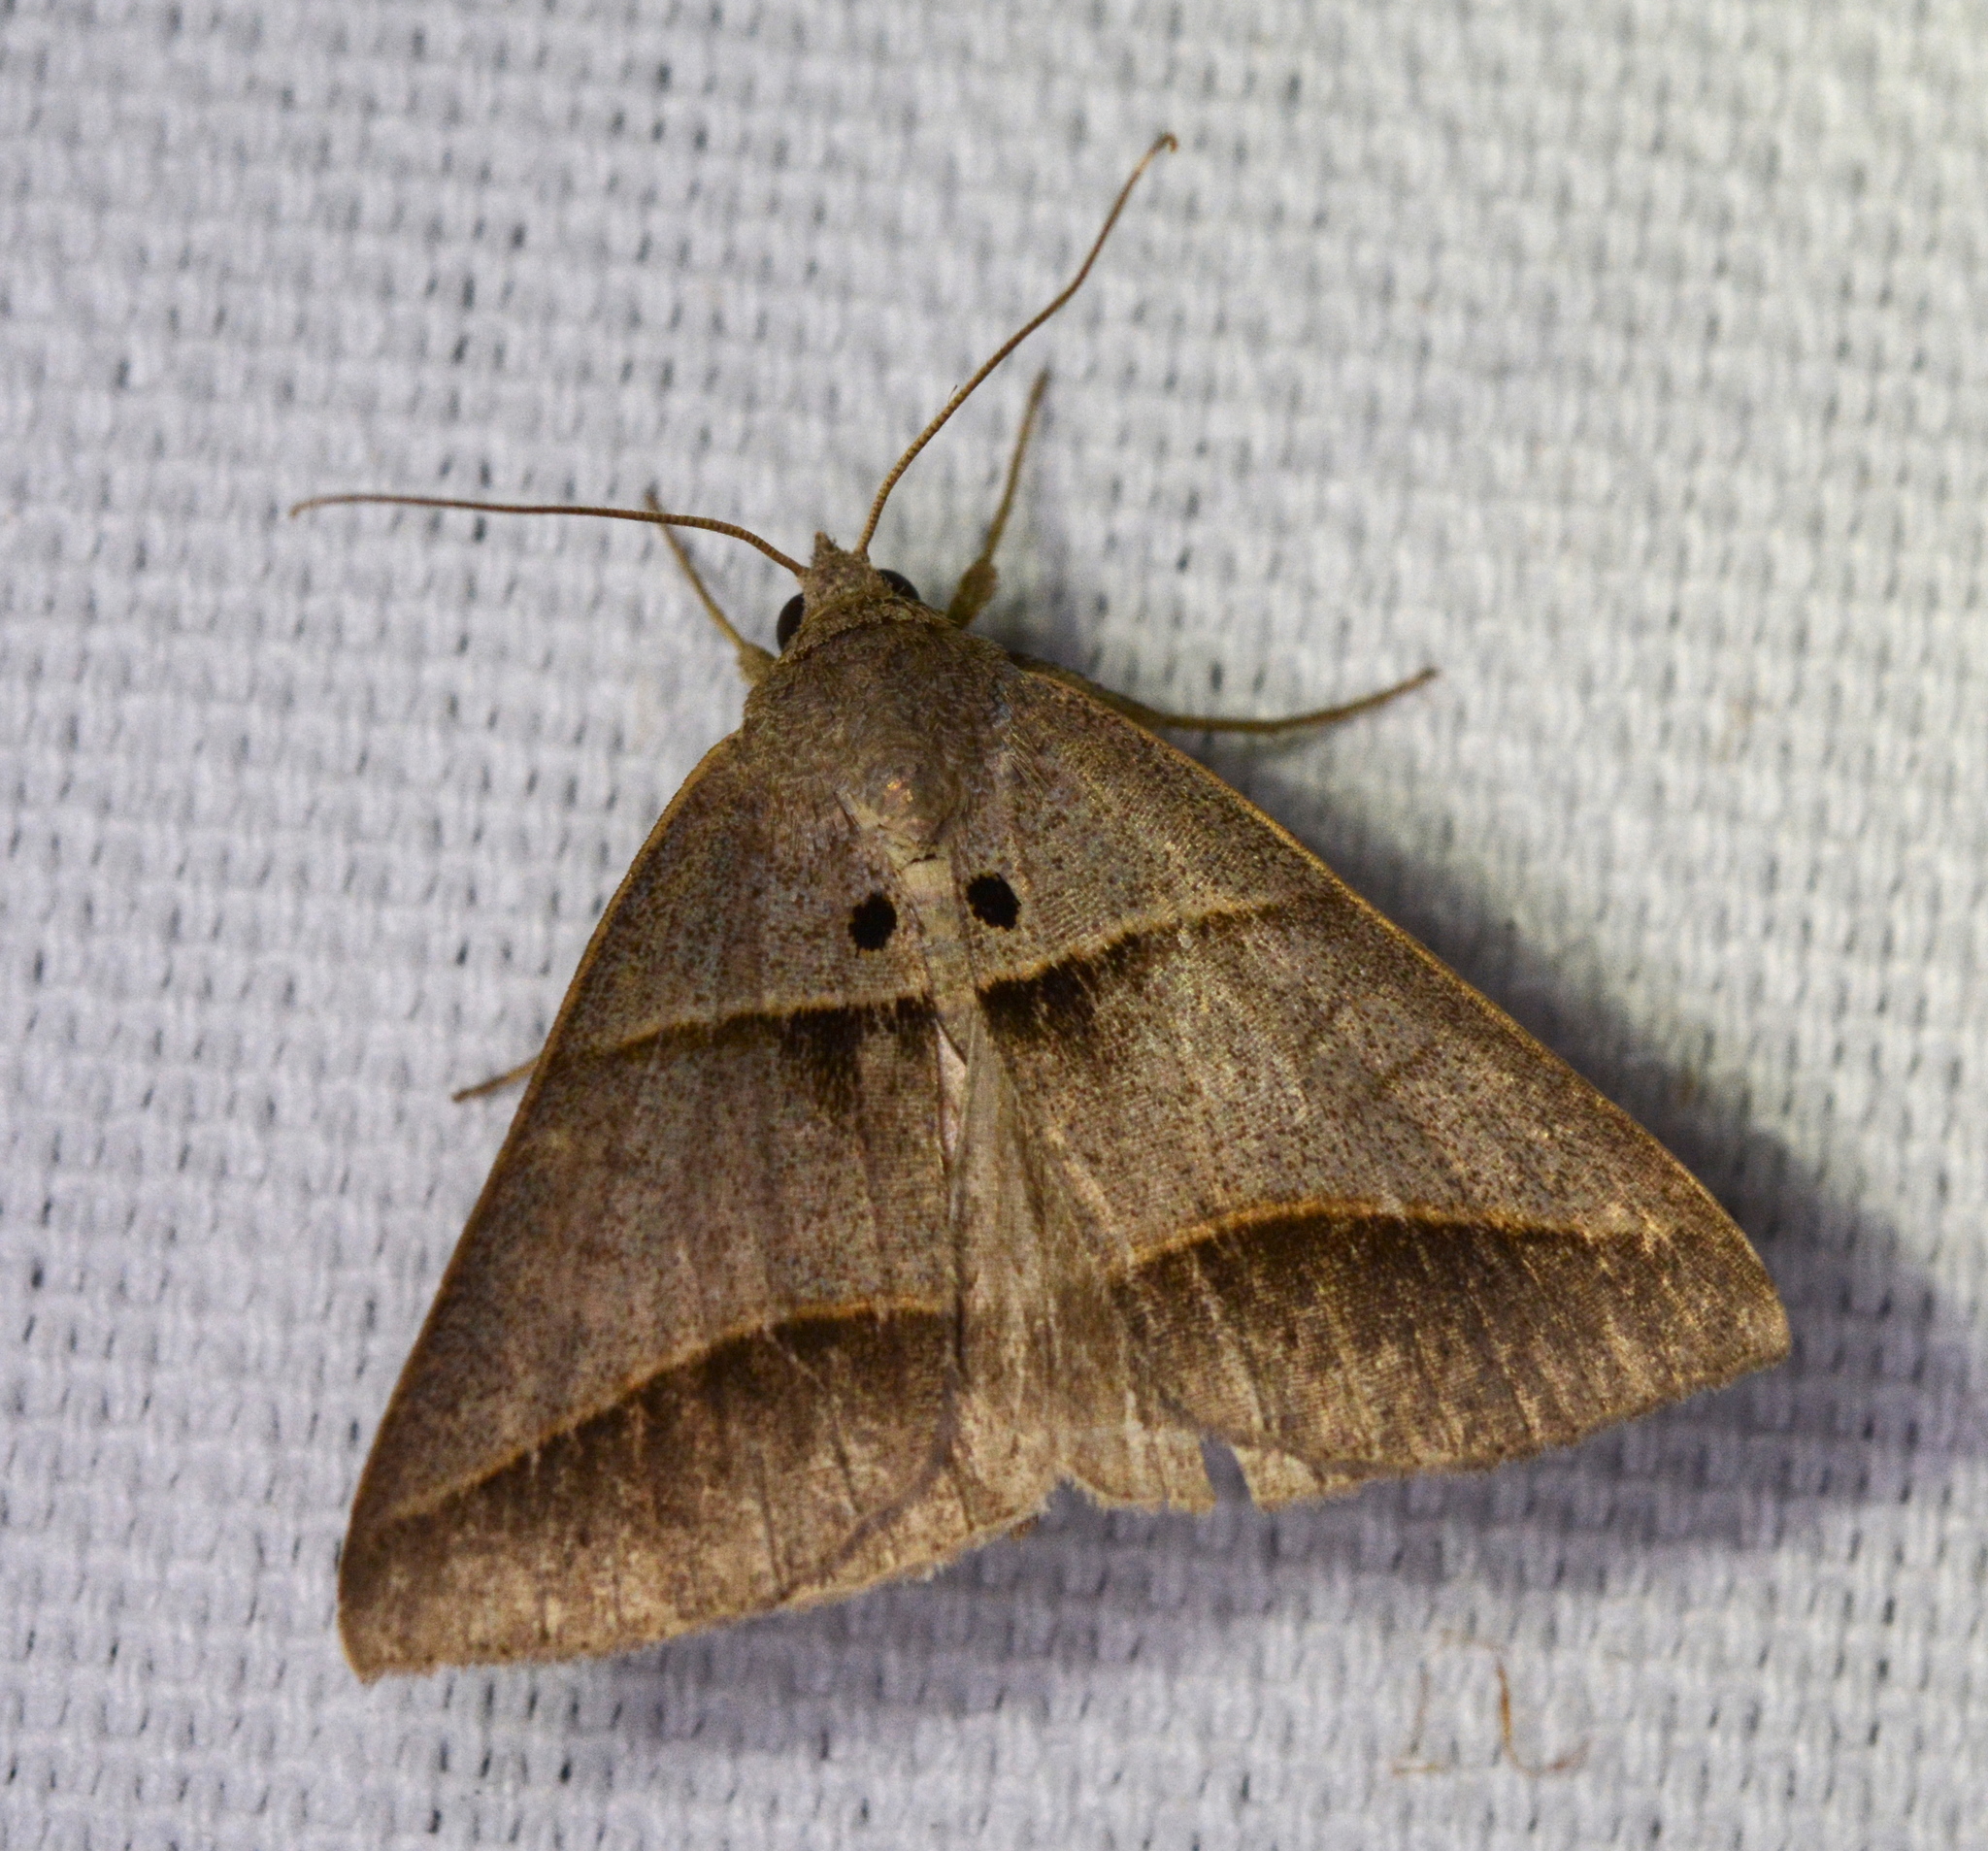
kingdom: Animalia
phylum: Arthropoda
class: Insecta
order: Lepidoptera
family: Erebidae
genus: Ptichodis
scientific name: Ptichodis herbarum
